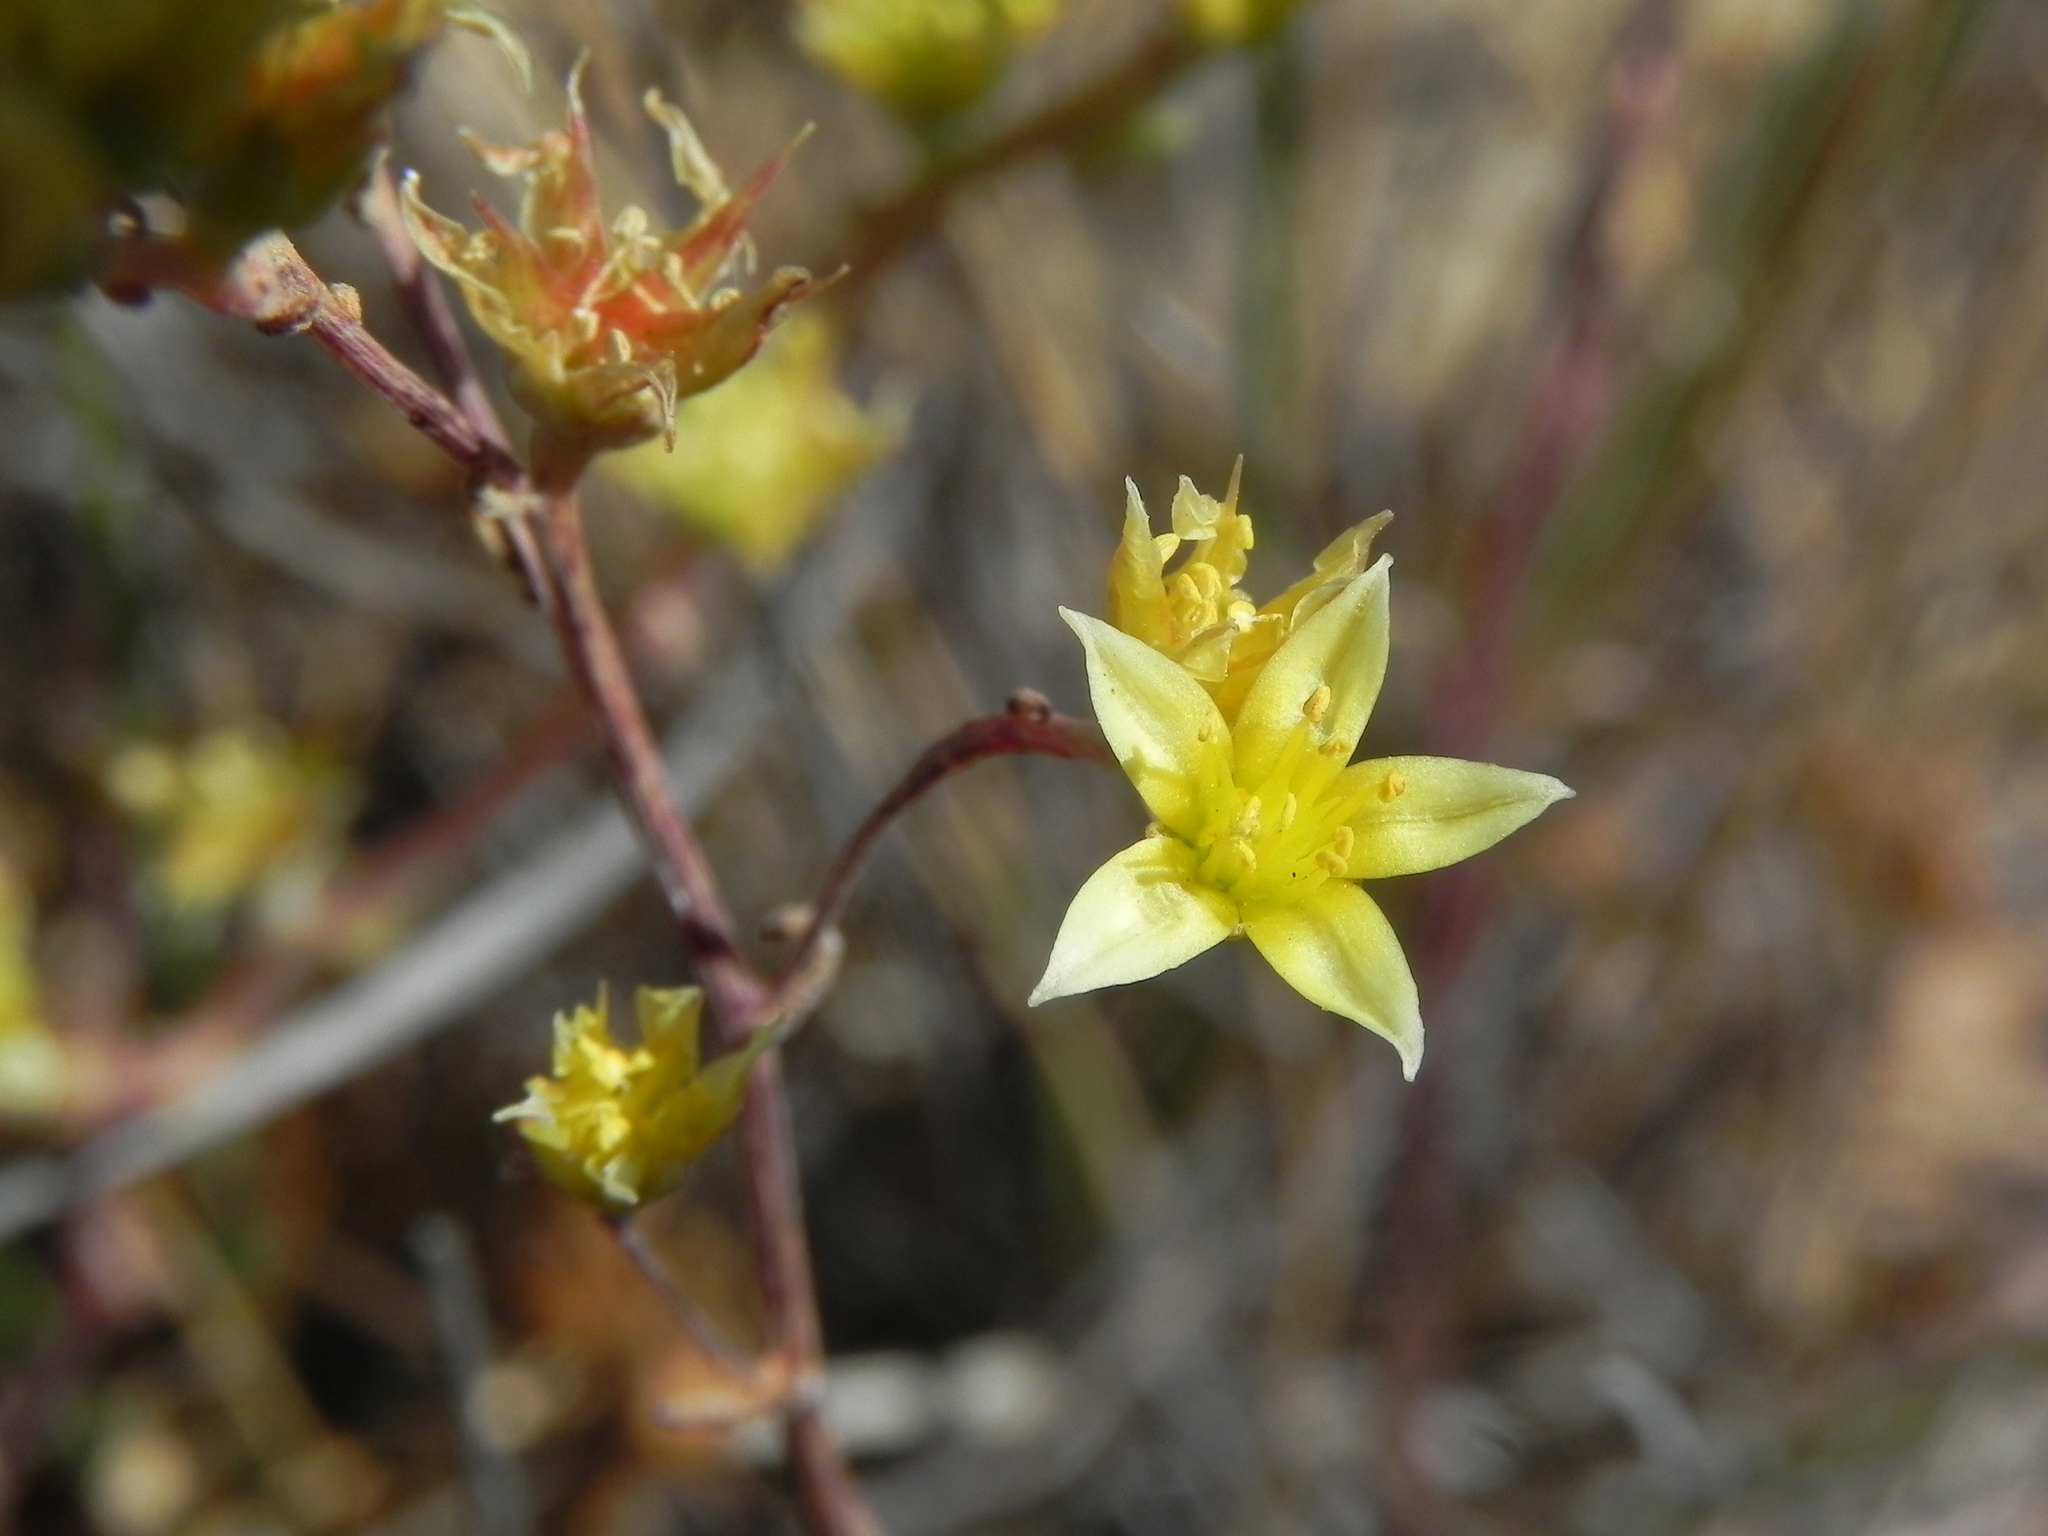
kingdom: Plantae
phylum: Tracheophyta
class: Magnoliopsida
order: Saxifragales
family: Crassulaceae
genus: Dudleya
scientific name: Dudleya variegata
